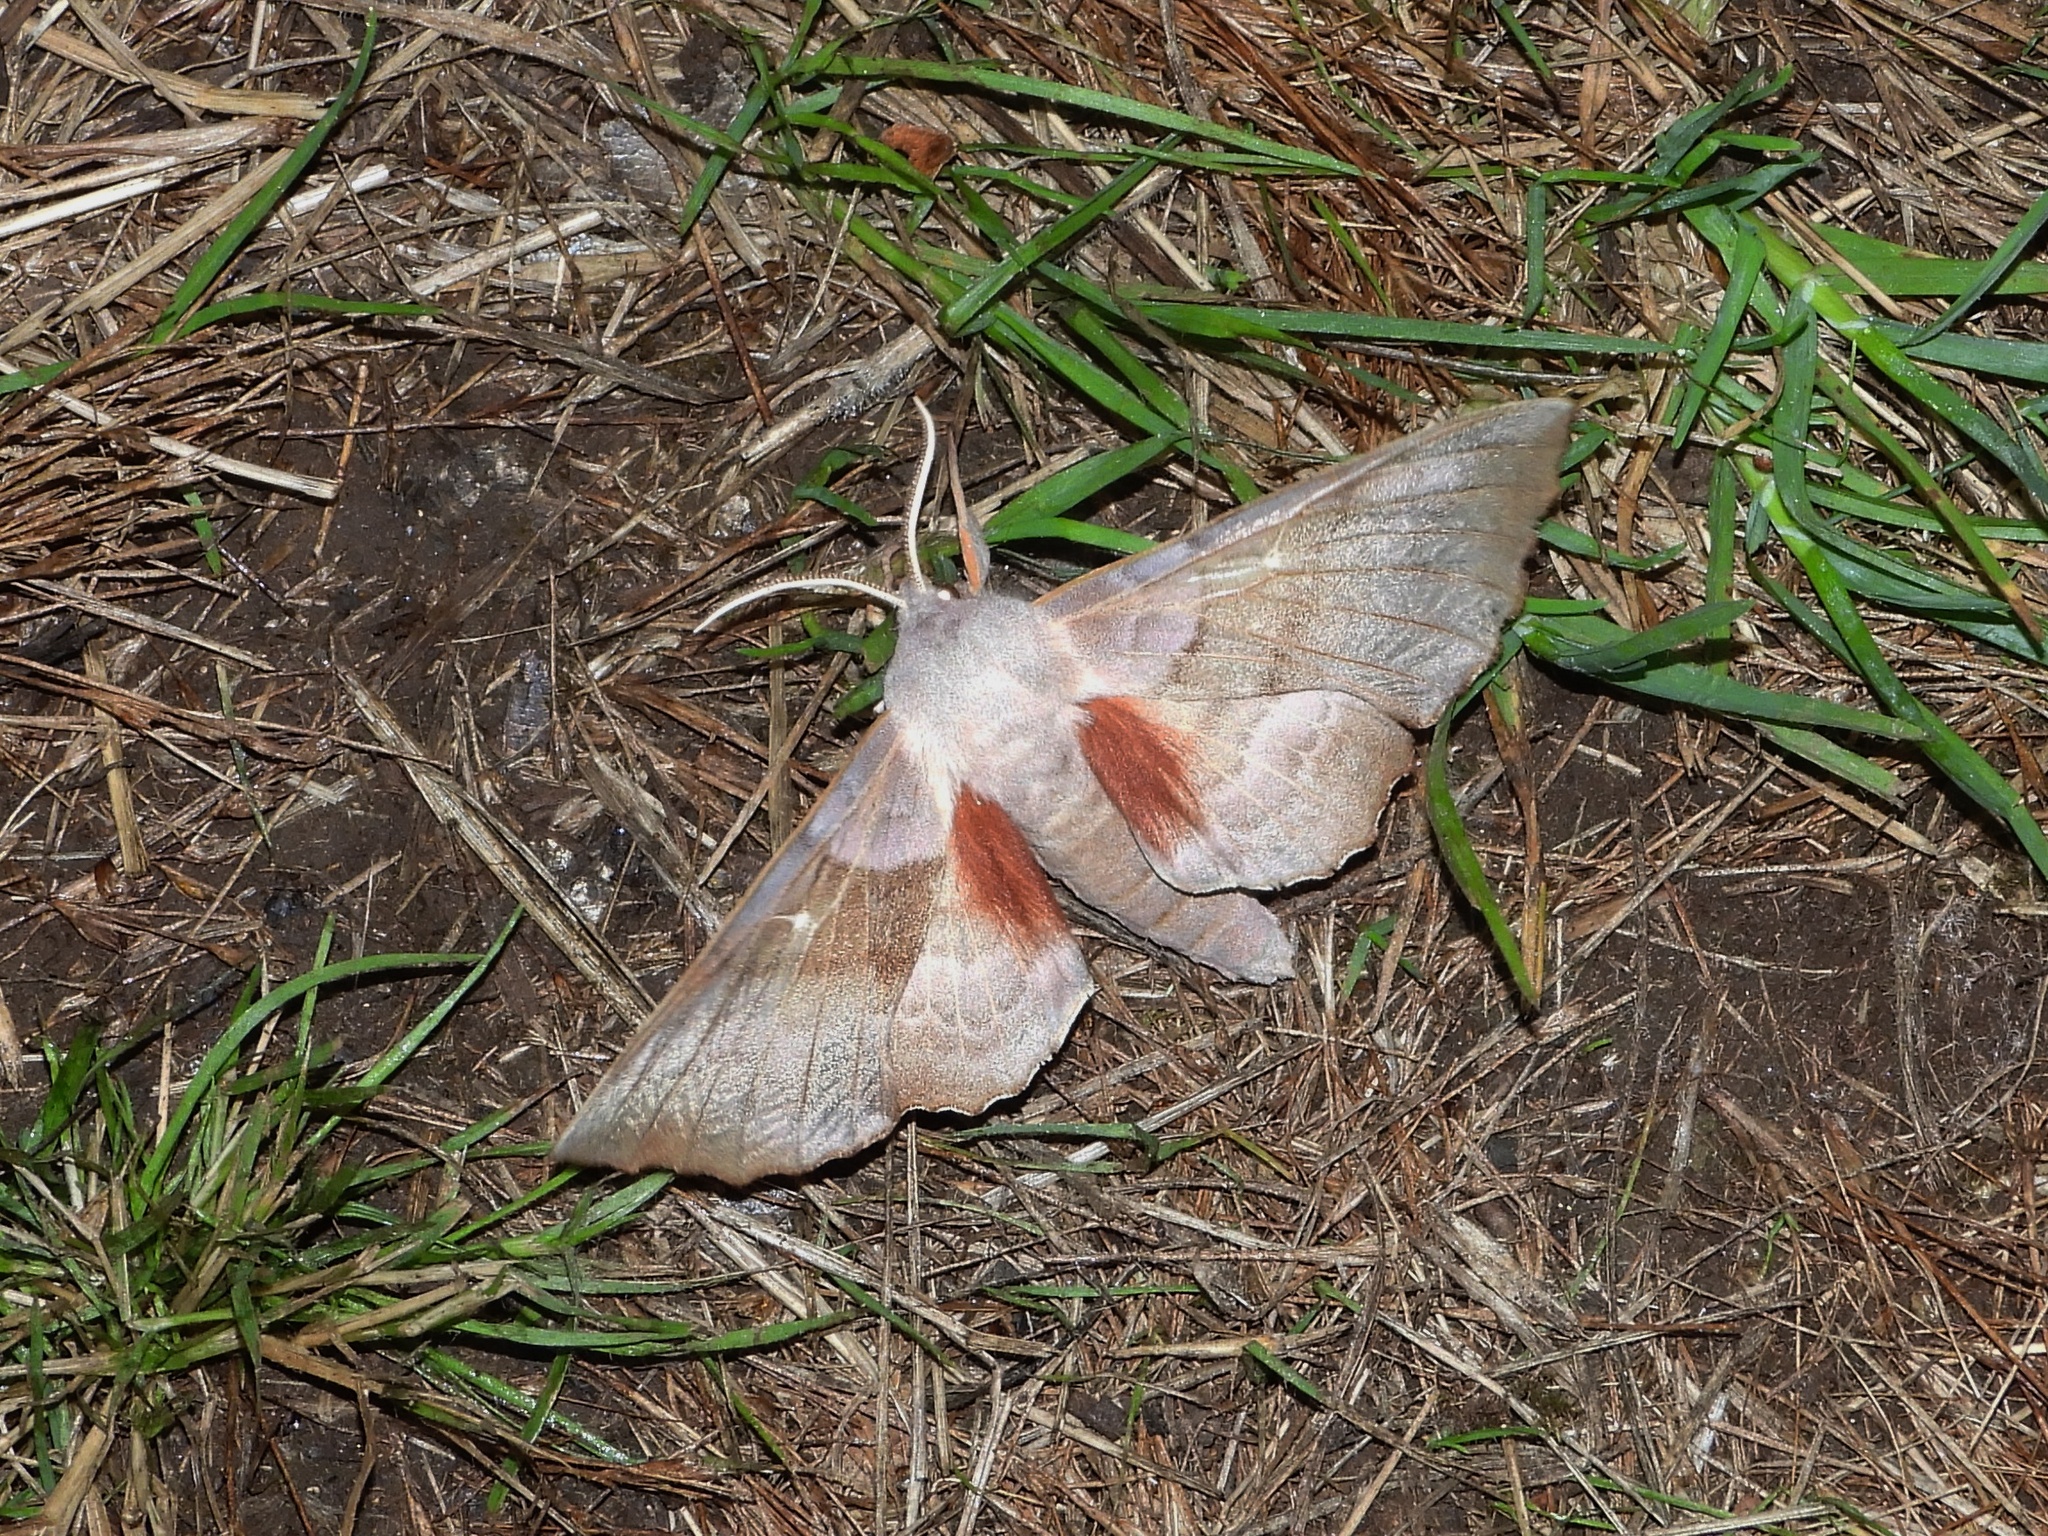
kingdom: Animalia
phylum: Arthropoda
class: Insecta
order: Lepidoptera
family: Sphingidae
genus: Laothoe
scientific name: Laothoe populi
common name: Poplar hawk-moth
